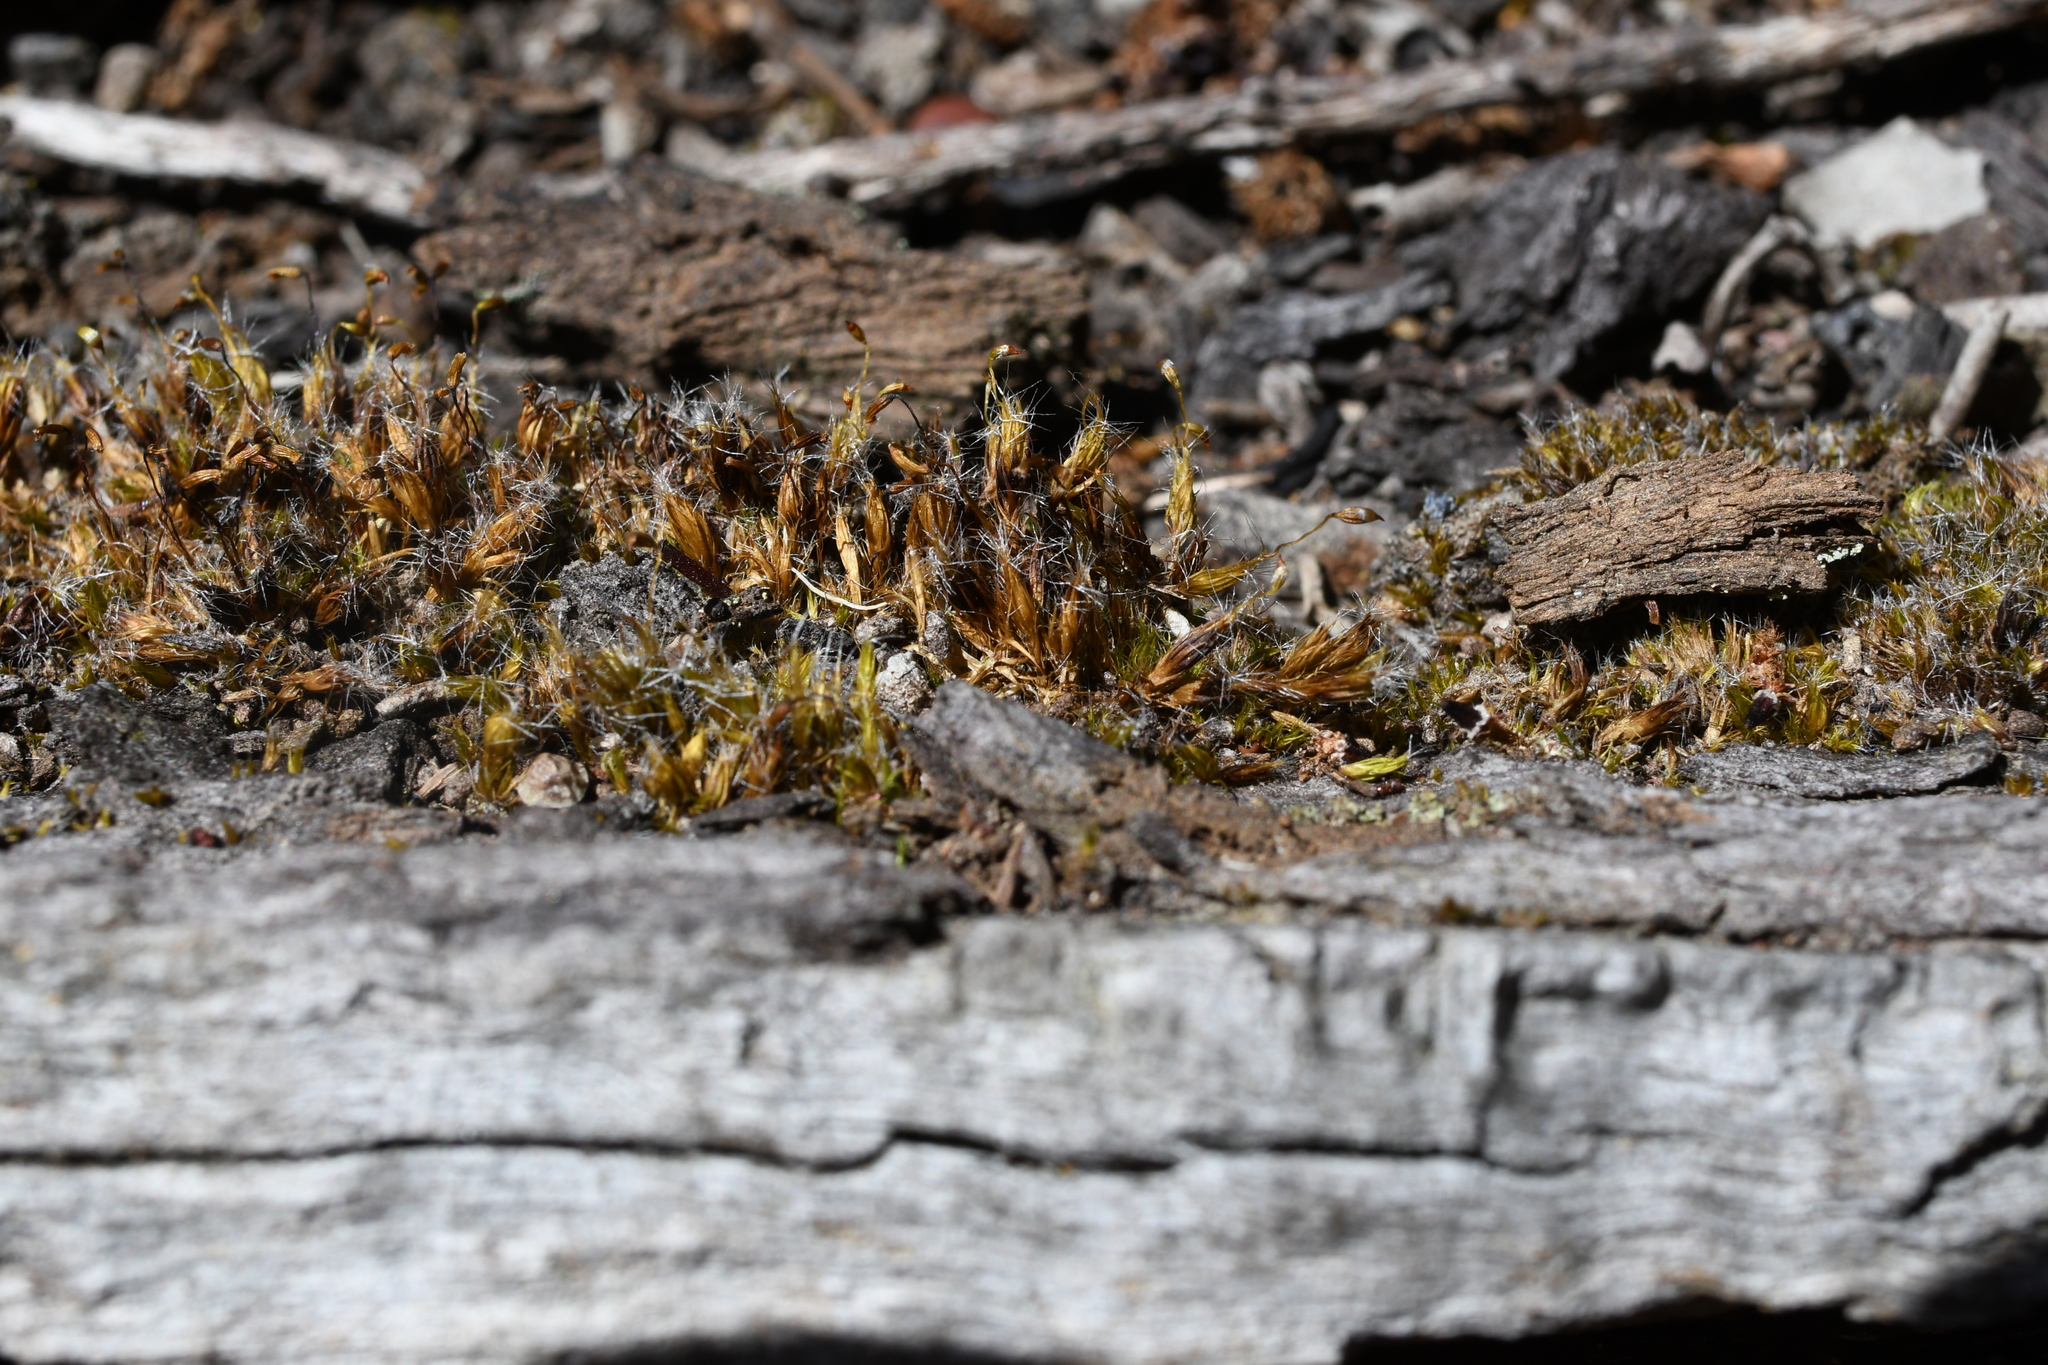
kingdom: Plantae
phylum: Bryophyta
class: Bryopsida
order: Dicranales
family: Leucobryaceae
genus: Campylopus
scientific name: Campylopus introflexus
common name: Heath star moss
